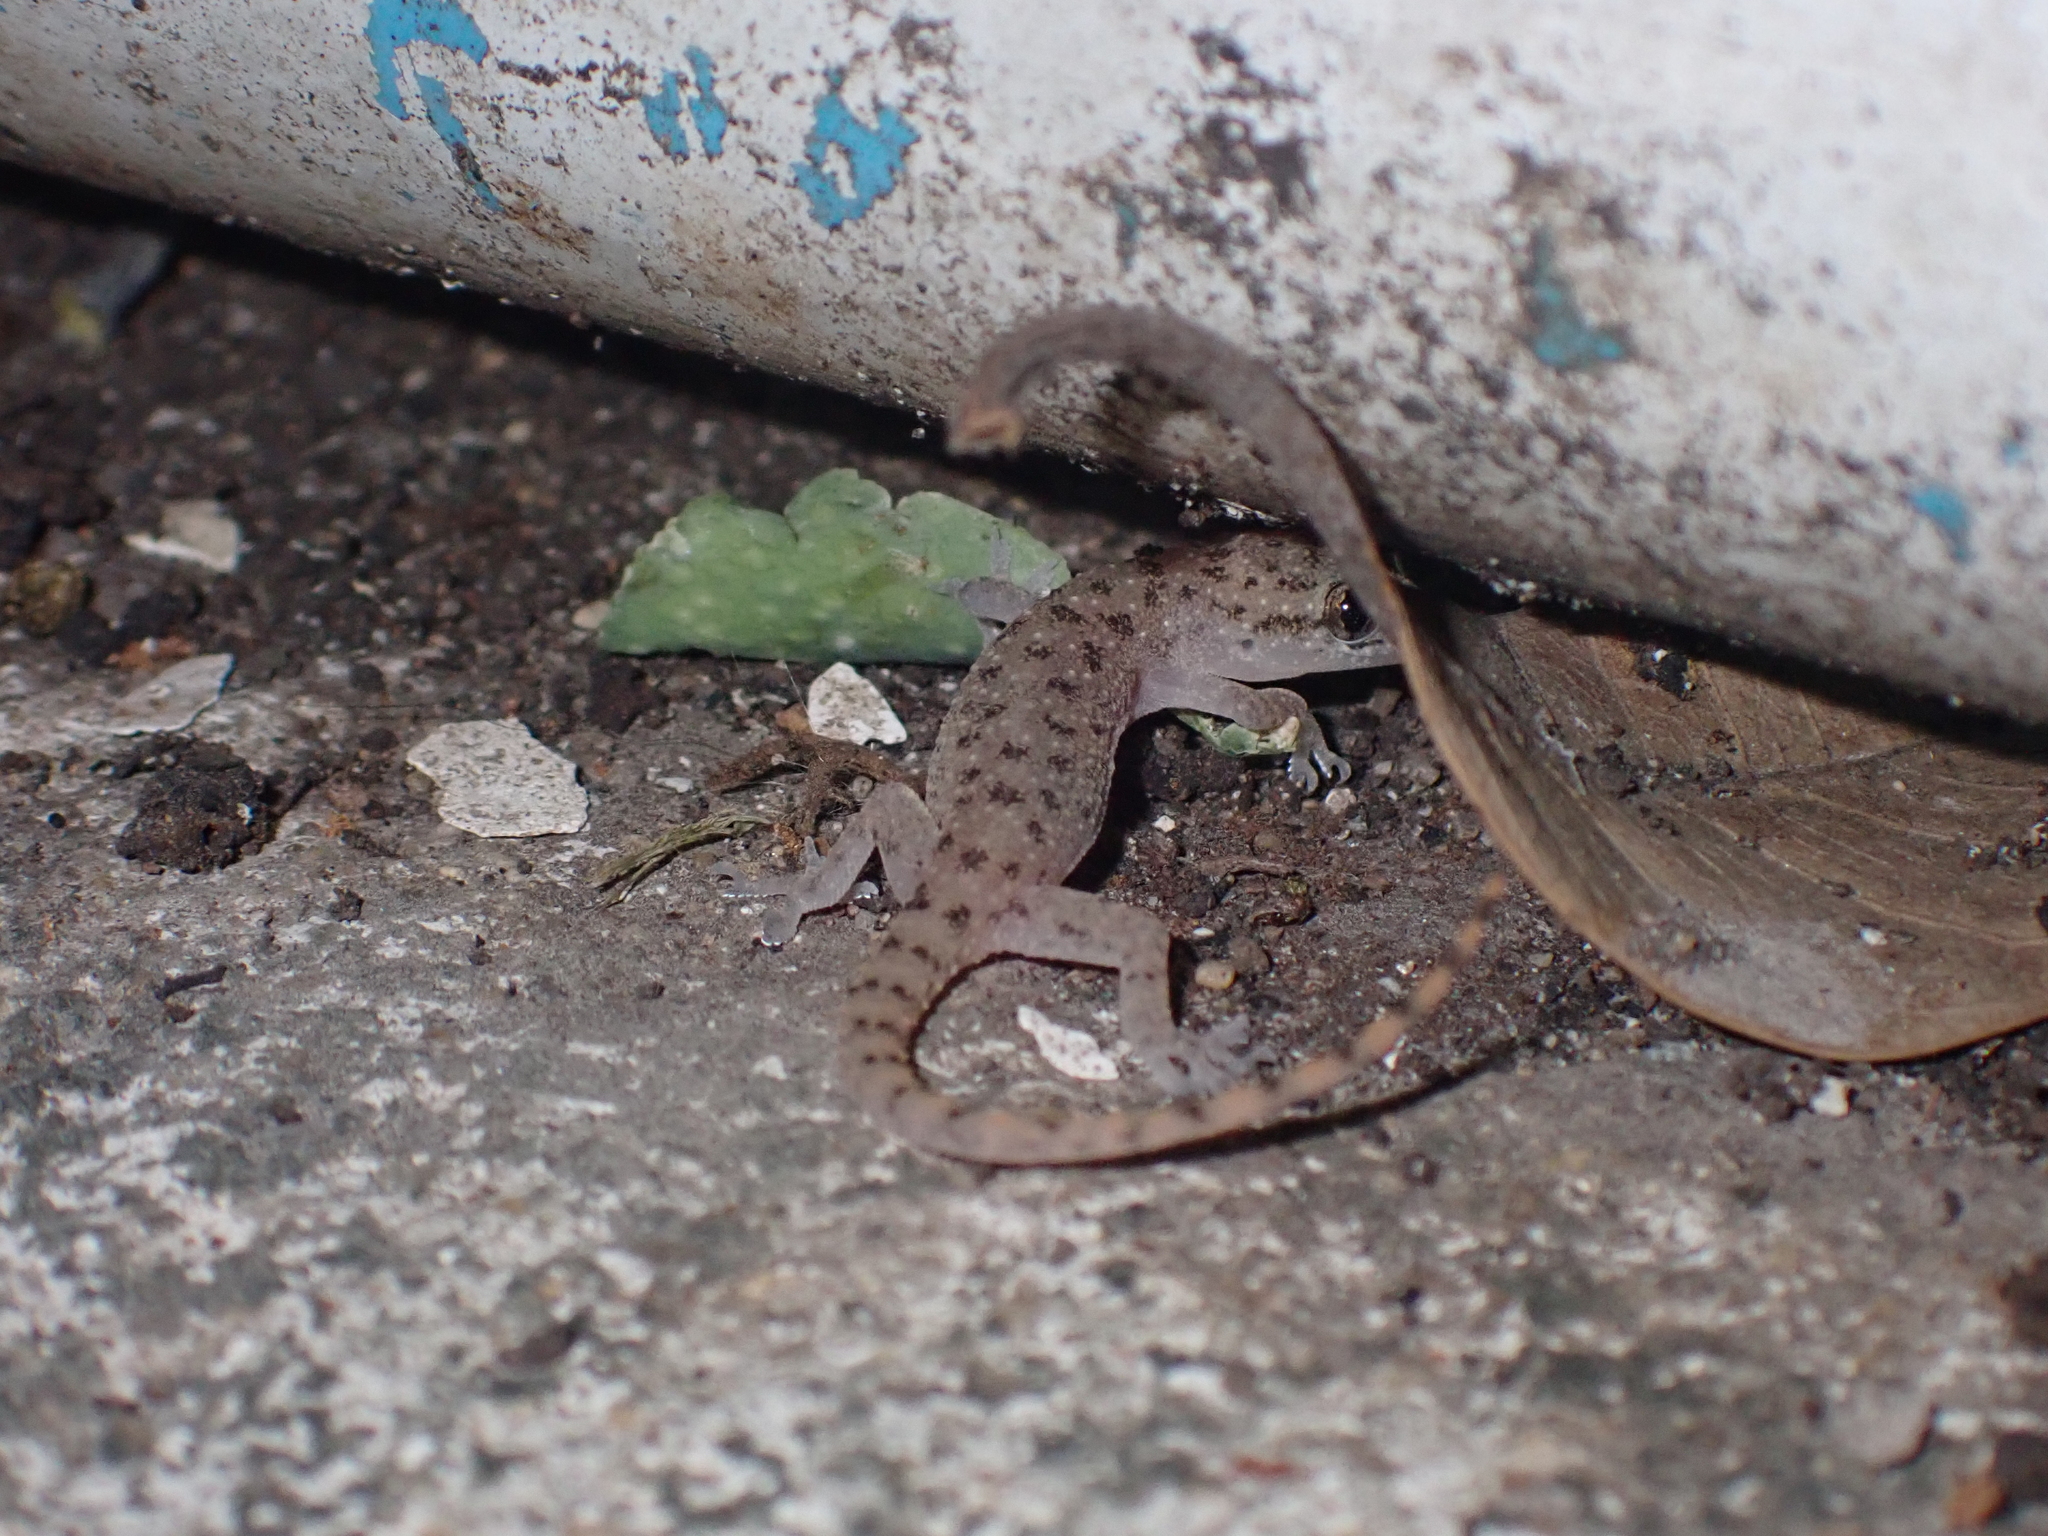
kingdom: Animalia
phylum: Chordata
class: Squamata
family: Gekkonidae
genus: Hemidactylus
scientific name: Hemidactylus parvimaculatus
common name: Spotted house gecko
